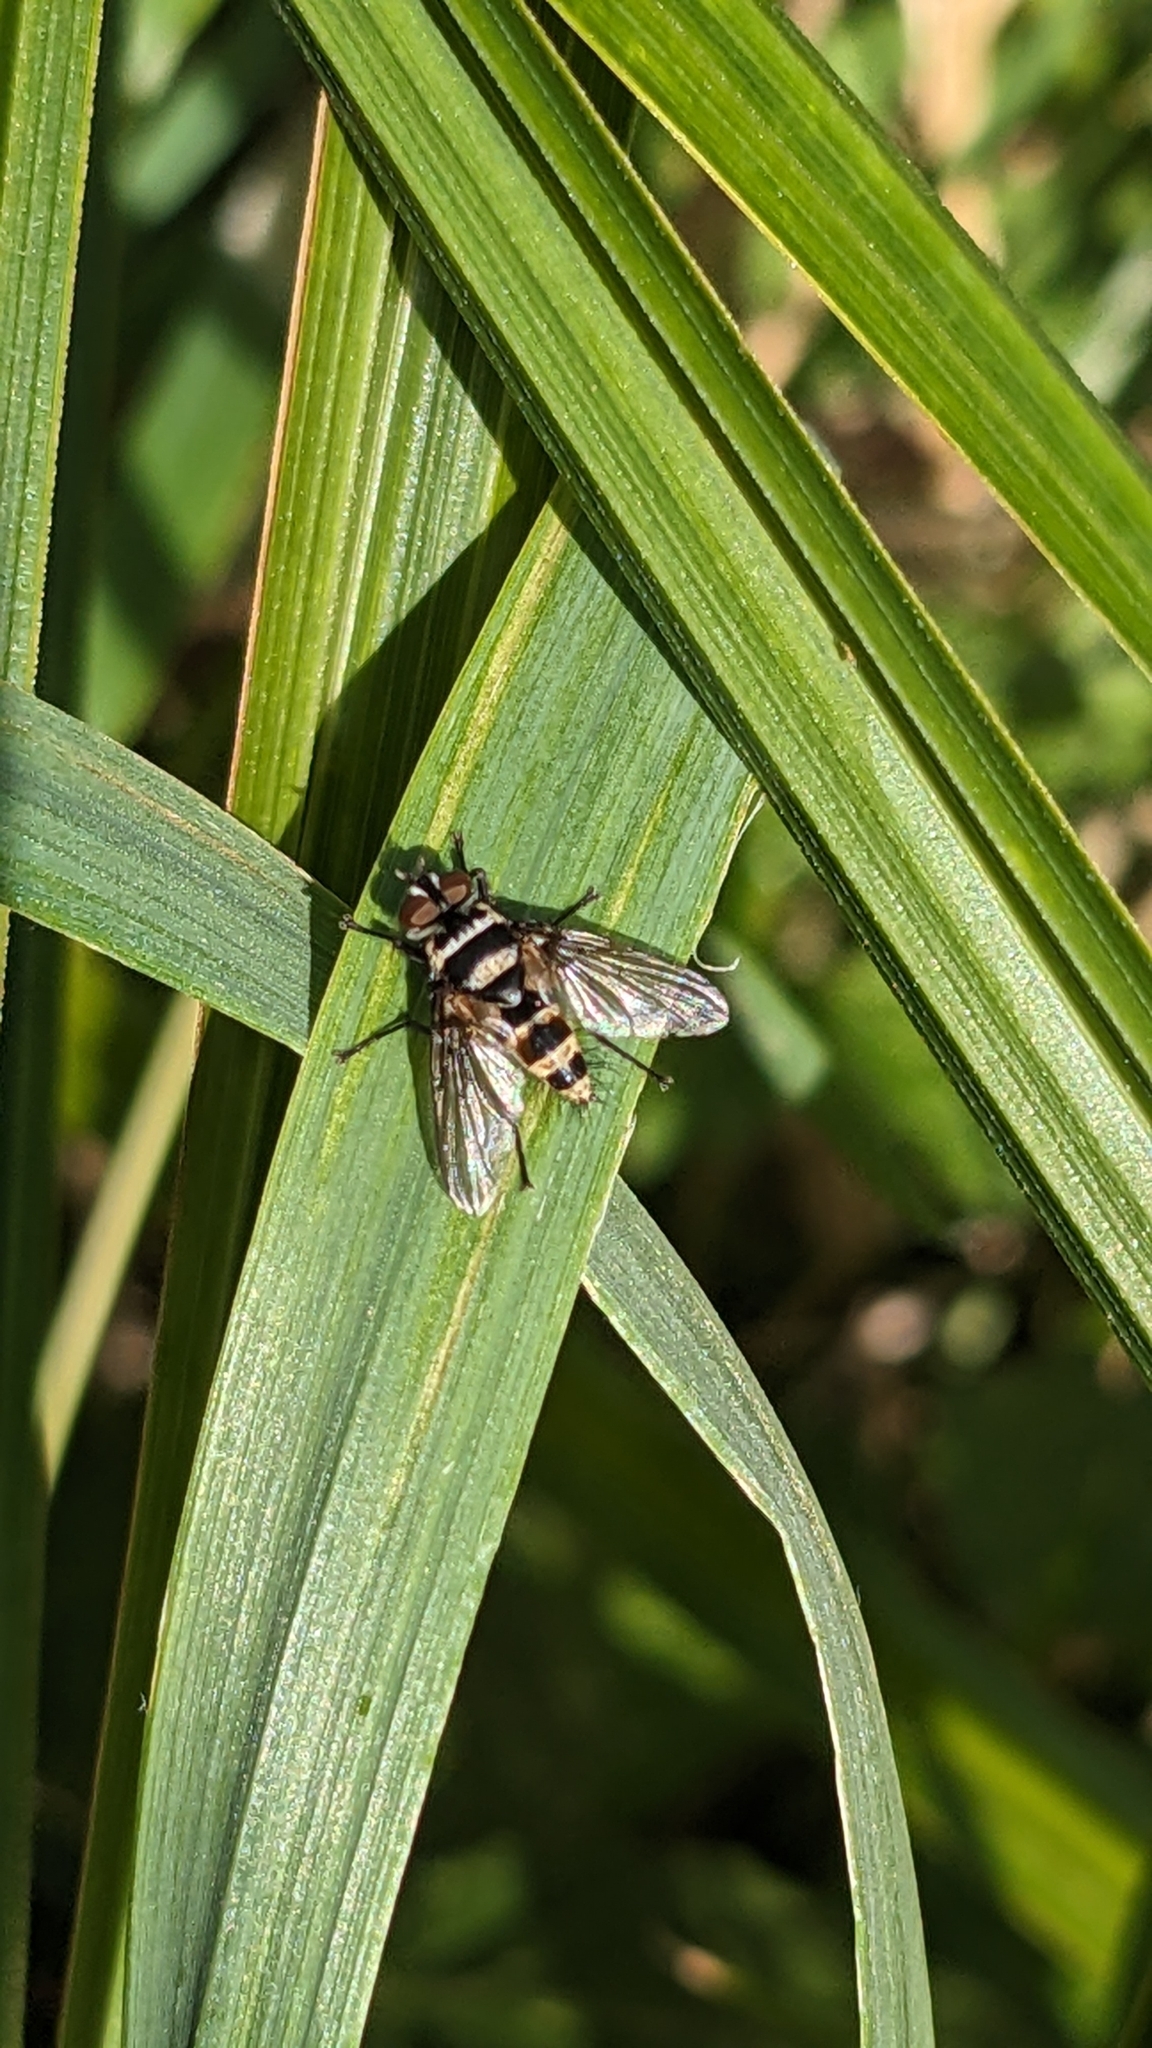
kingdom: Animalia
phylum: Arthropoda
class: Insecta
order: Diptera
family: Tachinidae
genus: Trigonospila
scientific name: Trigonospila brevifacies
